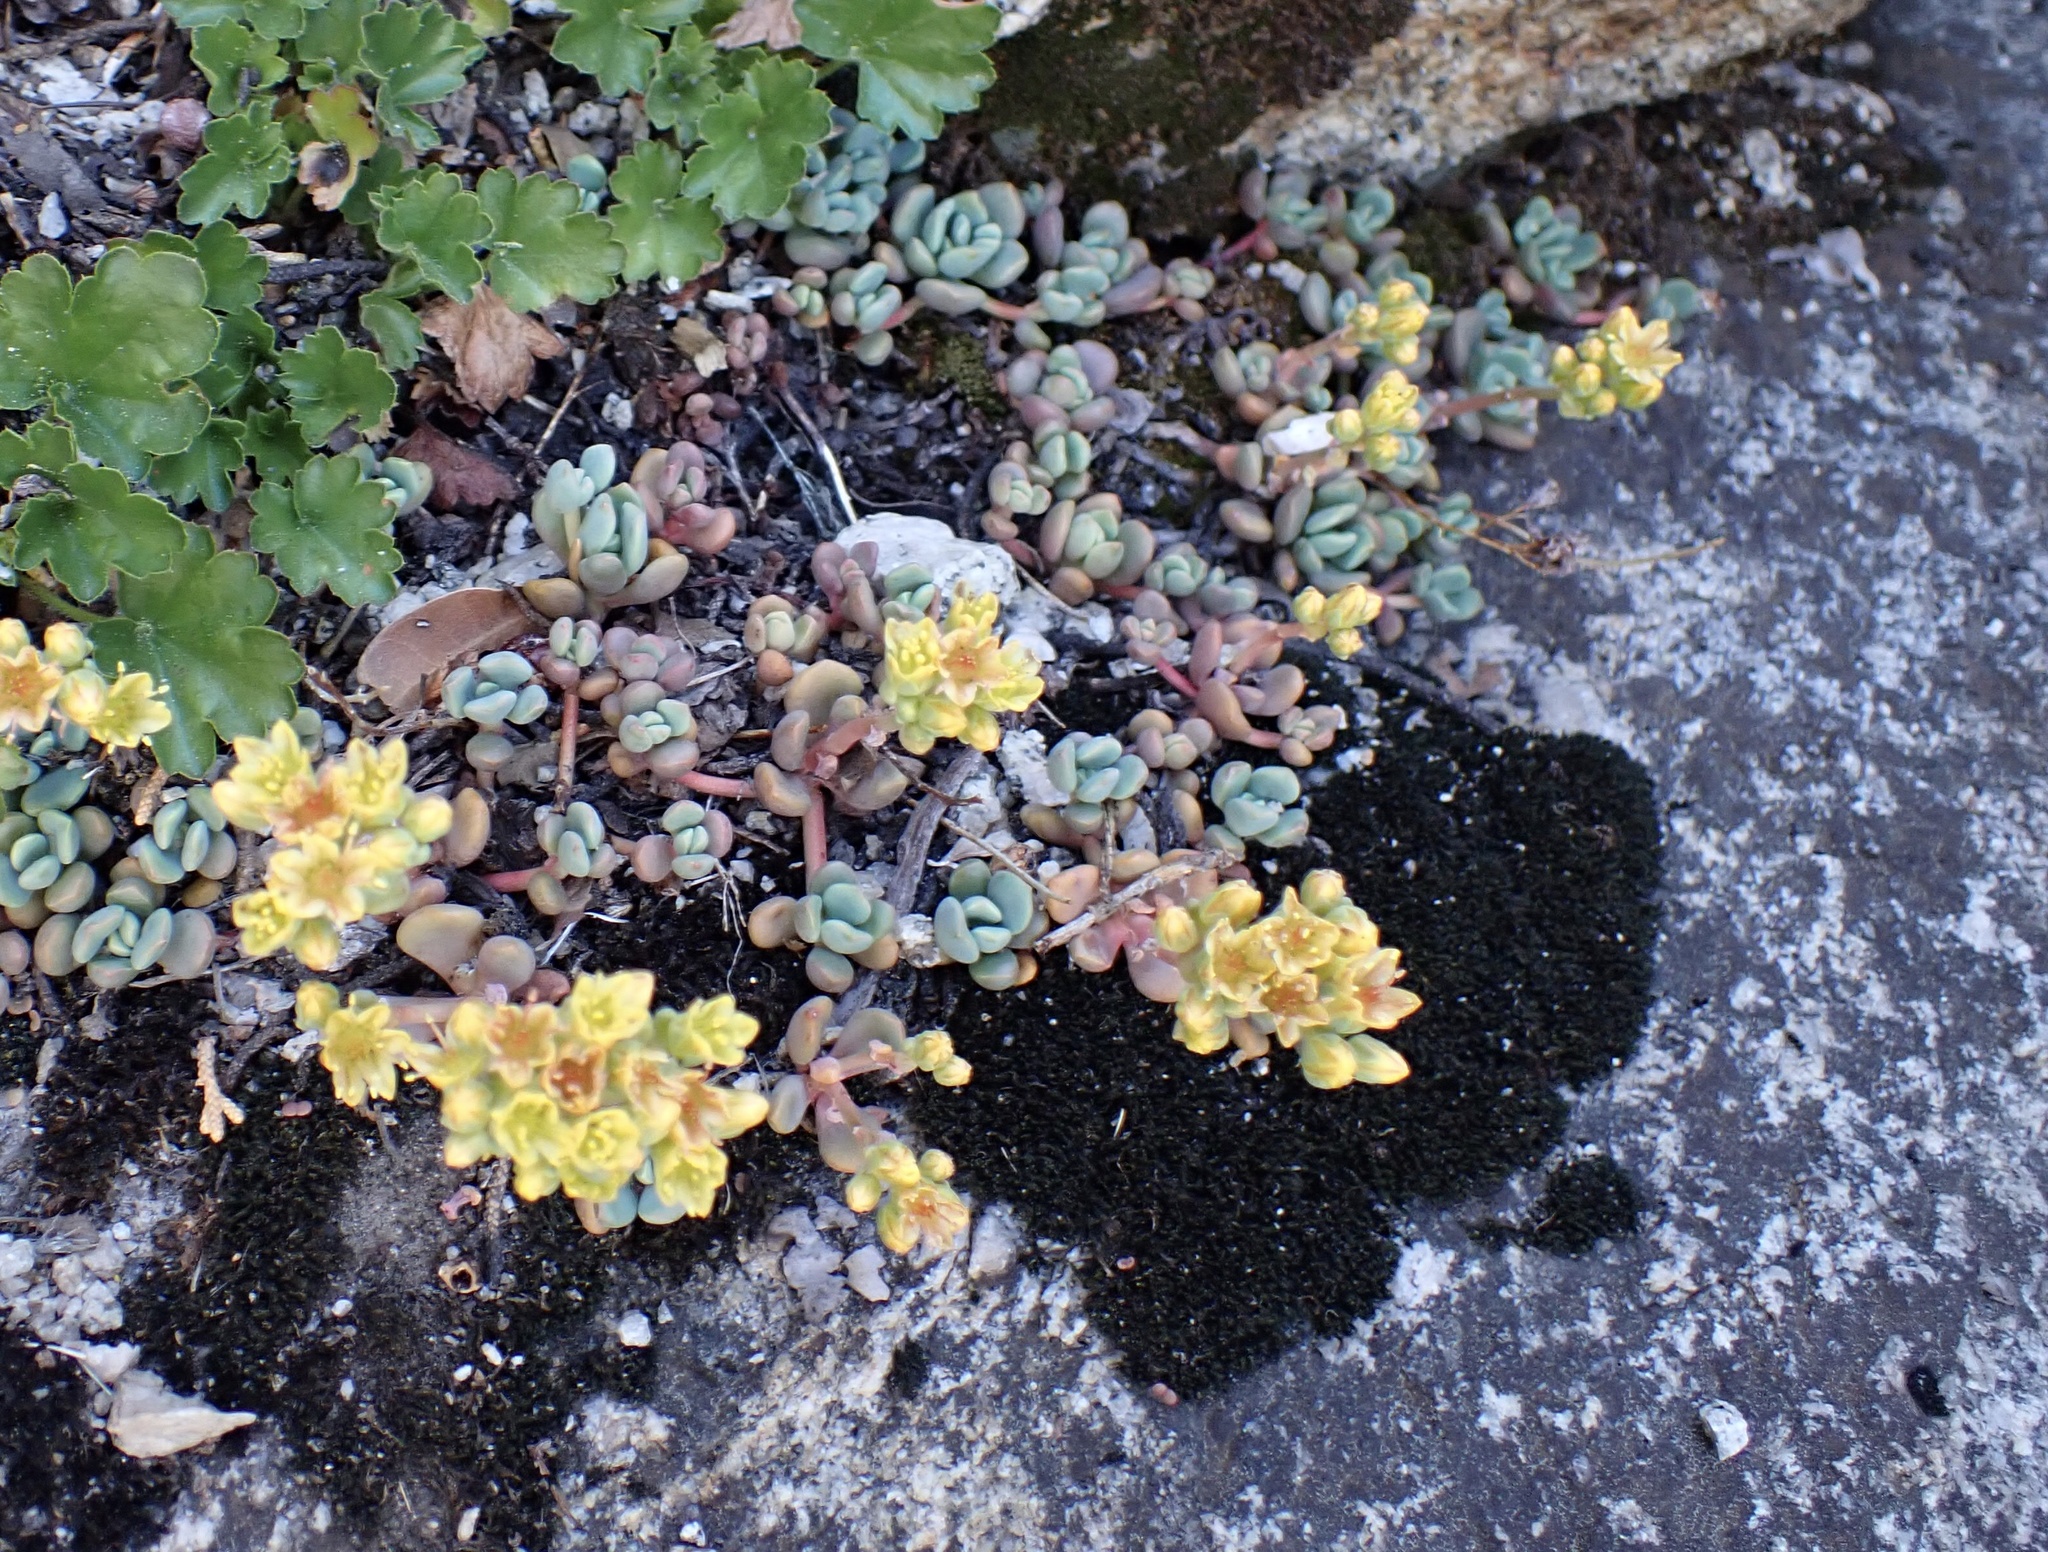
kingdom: Plantae
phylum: Tracheophyta
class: Magnoliopsida
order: Saxifragales
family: Crassulaceae
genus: Sedum
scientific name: Sedum obtusatum
